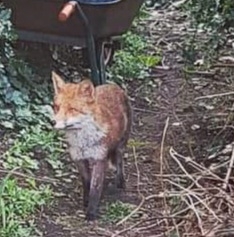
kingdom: Animalia
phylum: Chordata
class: Mammalia
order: Carnivora
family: Canidae
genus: Vulpes
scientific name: Vulpes vulpes
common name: Red fox
